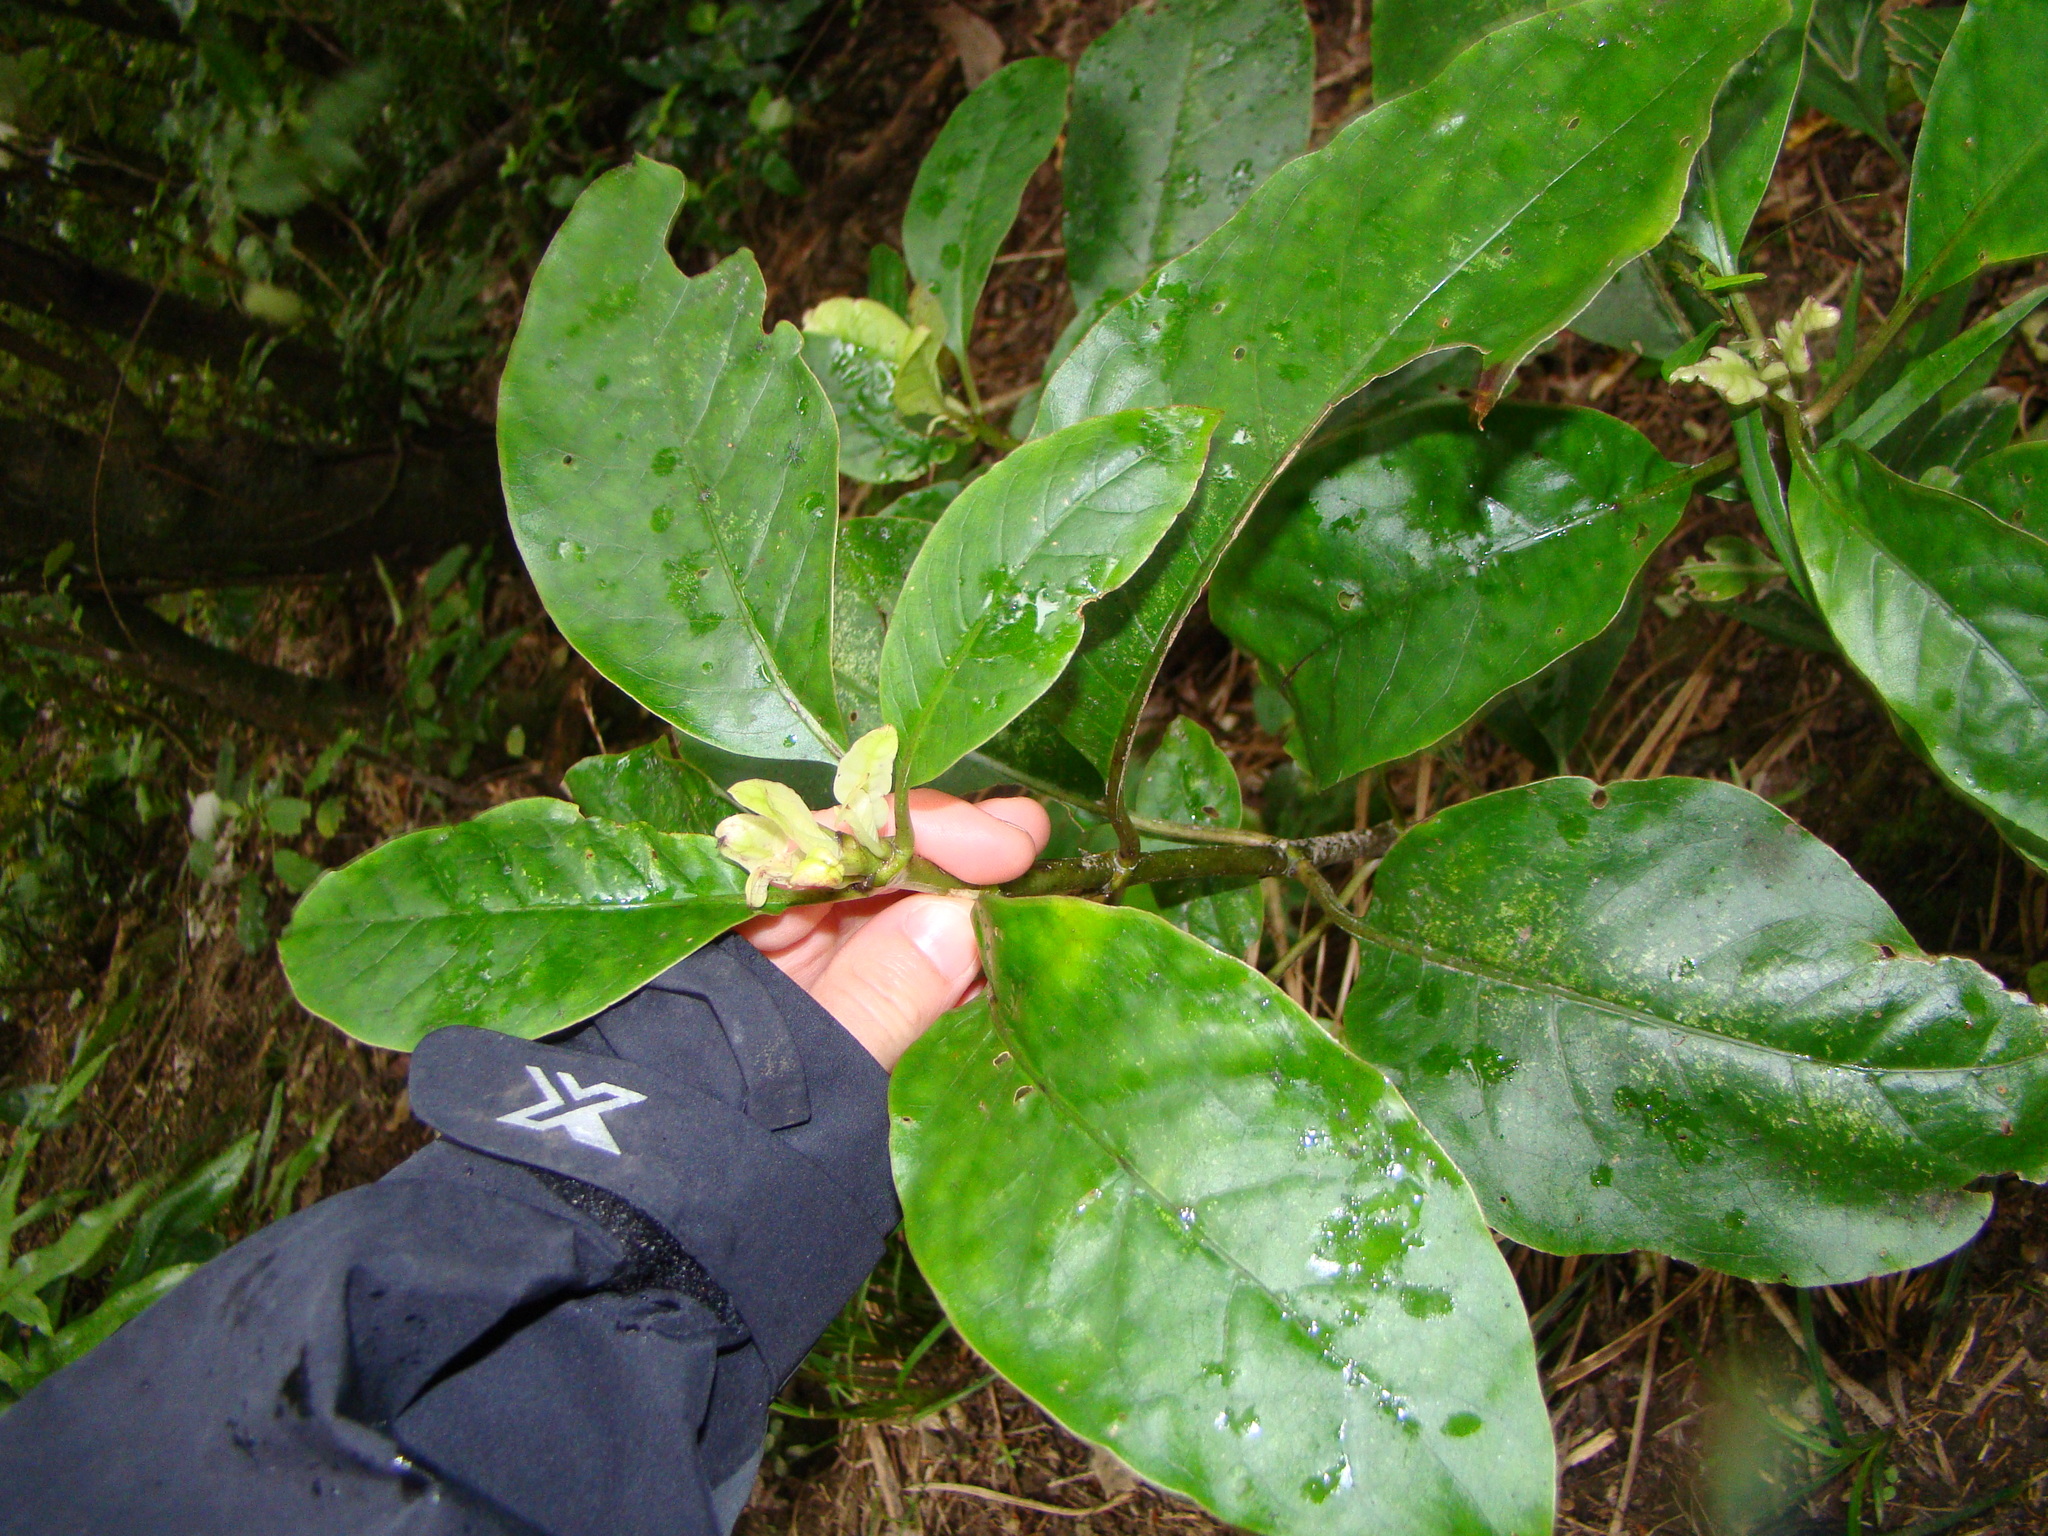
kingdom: Plantae
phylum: Tracheophyta
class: Magnoliopsida
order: Gentianales
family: Rubiaceae
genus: Coprosma
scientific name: Coprosma autumnalis
